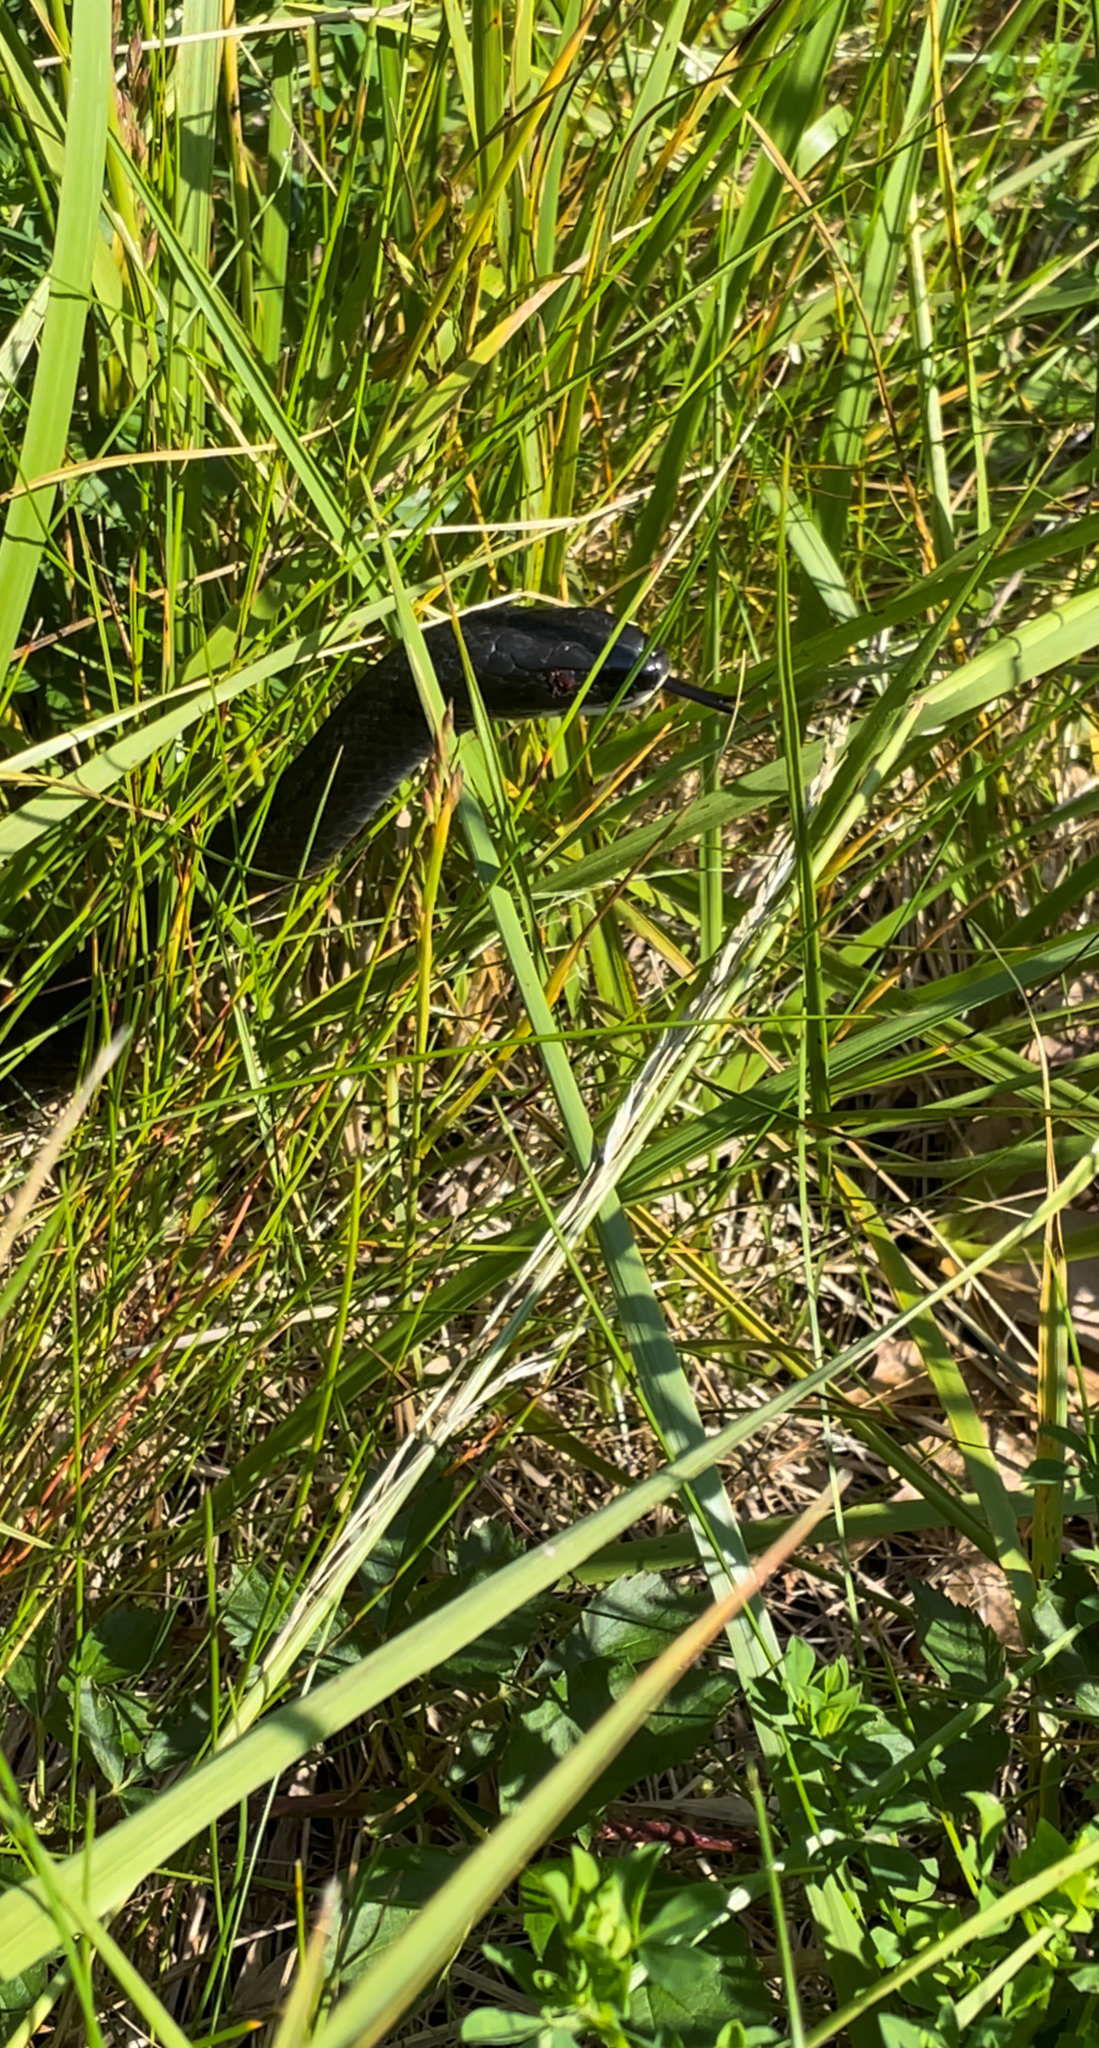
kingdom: Animalia
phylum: Chordata
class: Squamata
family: Colubridae
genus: Coluber
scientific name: Coluber constrictor
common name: Eastern racer
